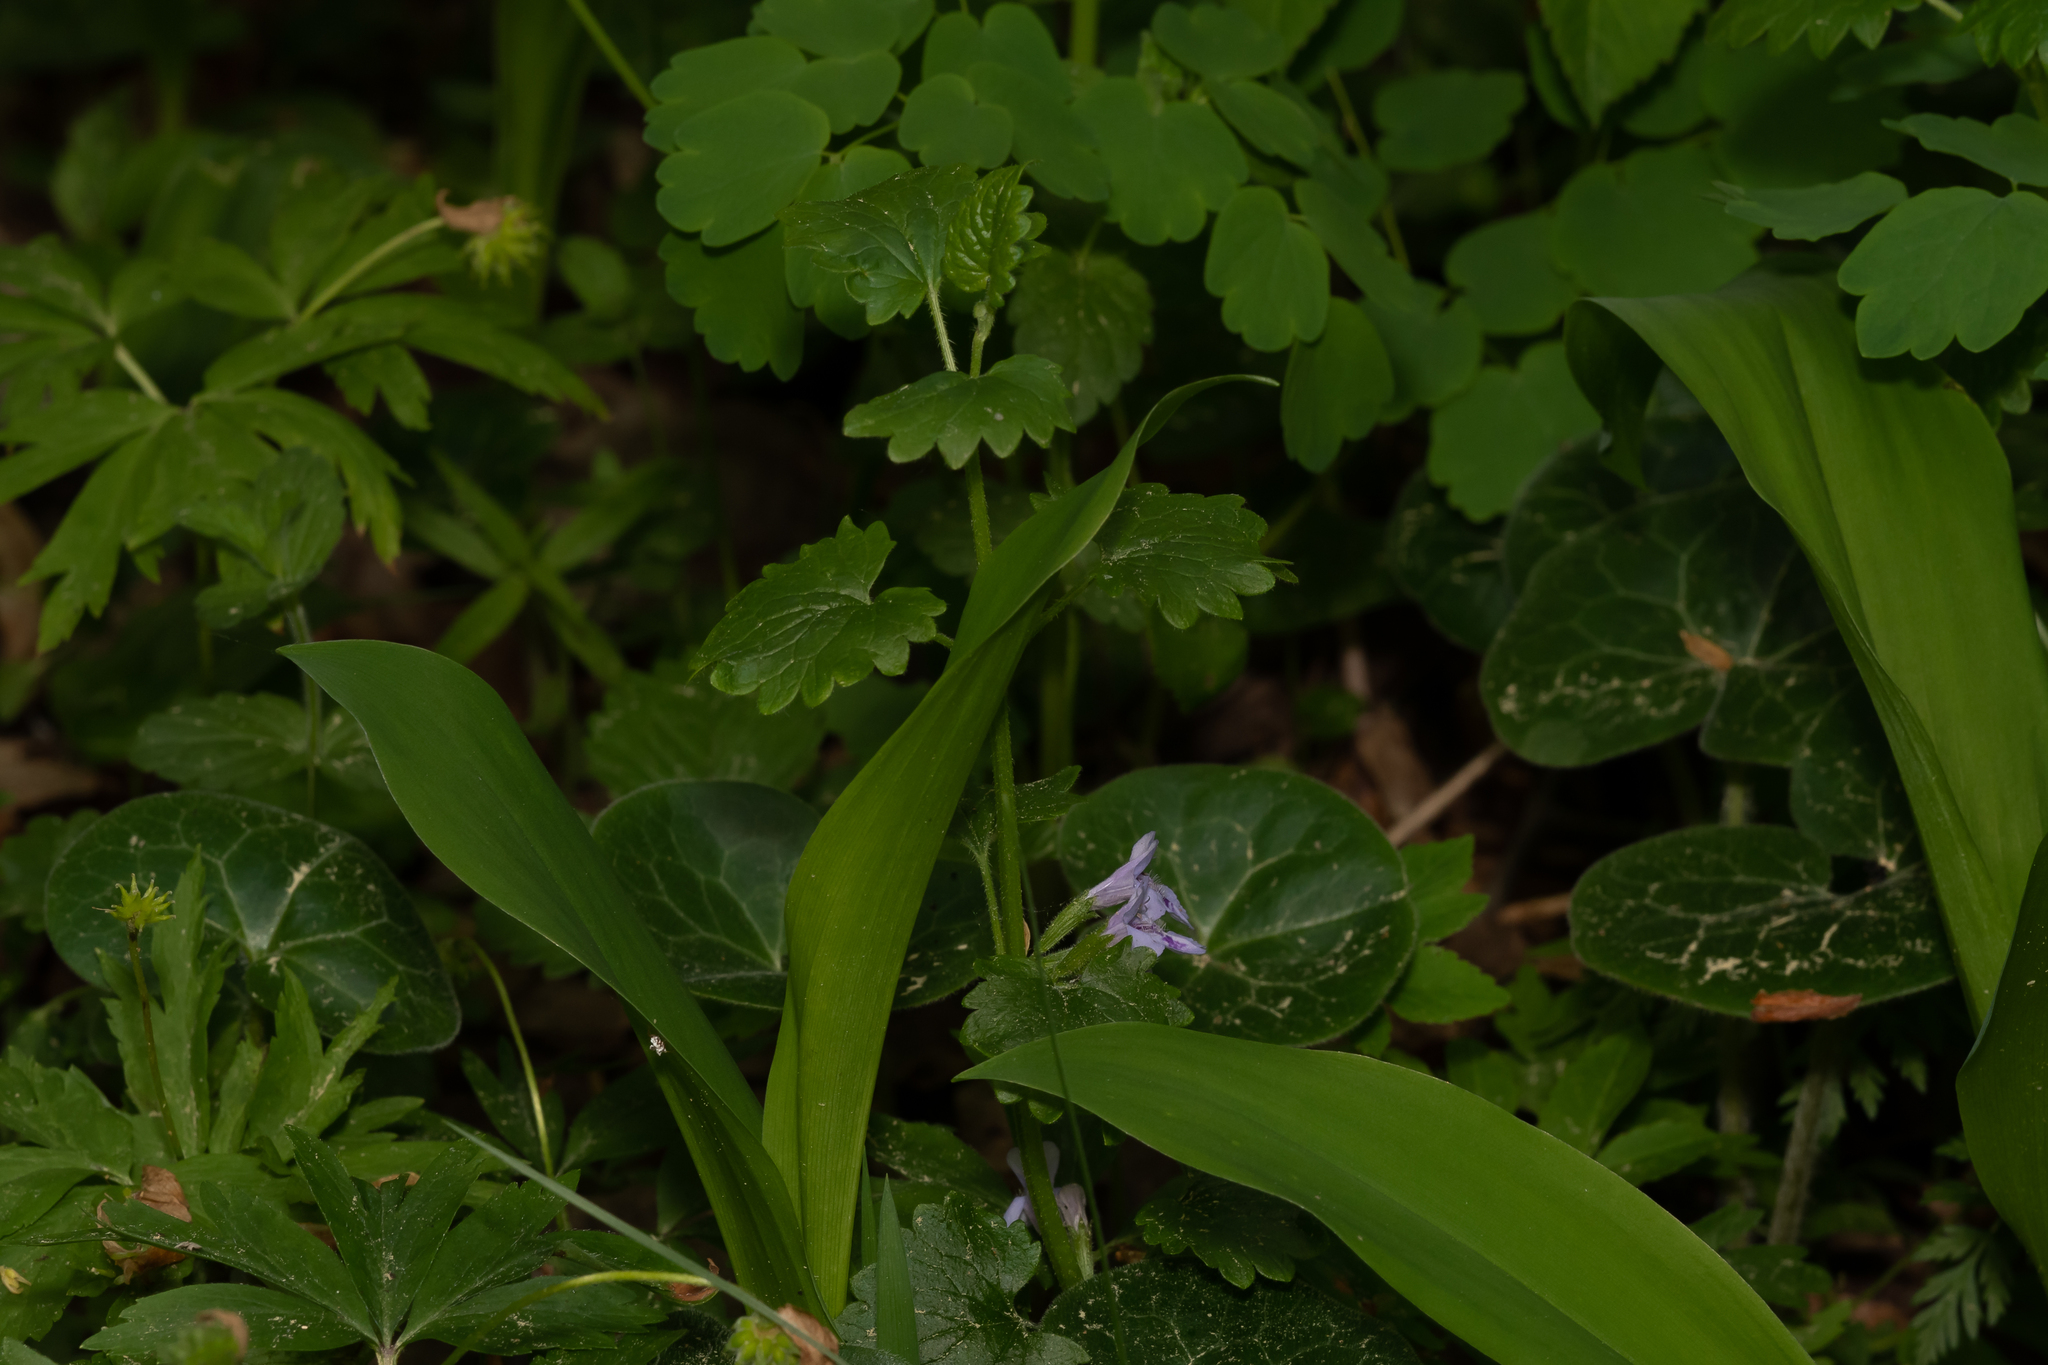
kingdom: Plantae
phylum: Tracheophyta
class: Magnoliopsida
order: Lamiales
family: Lamiaceae
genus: Glechoma
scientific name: Glechoma hederacea
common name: Ground ivy
